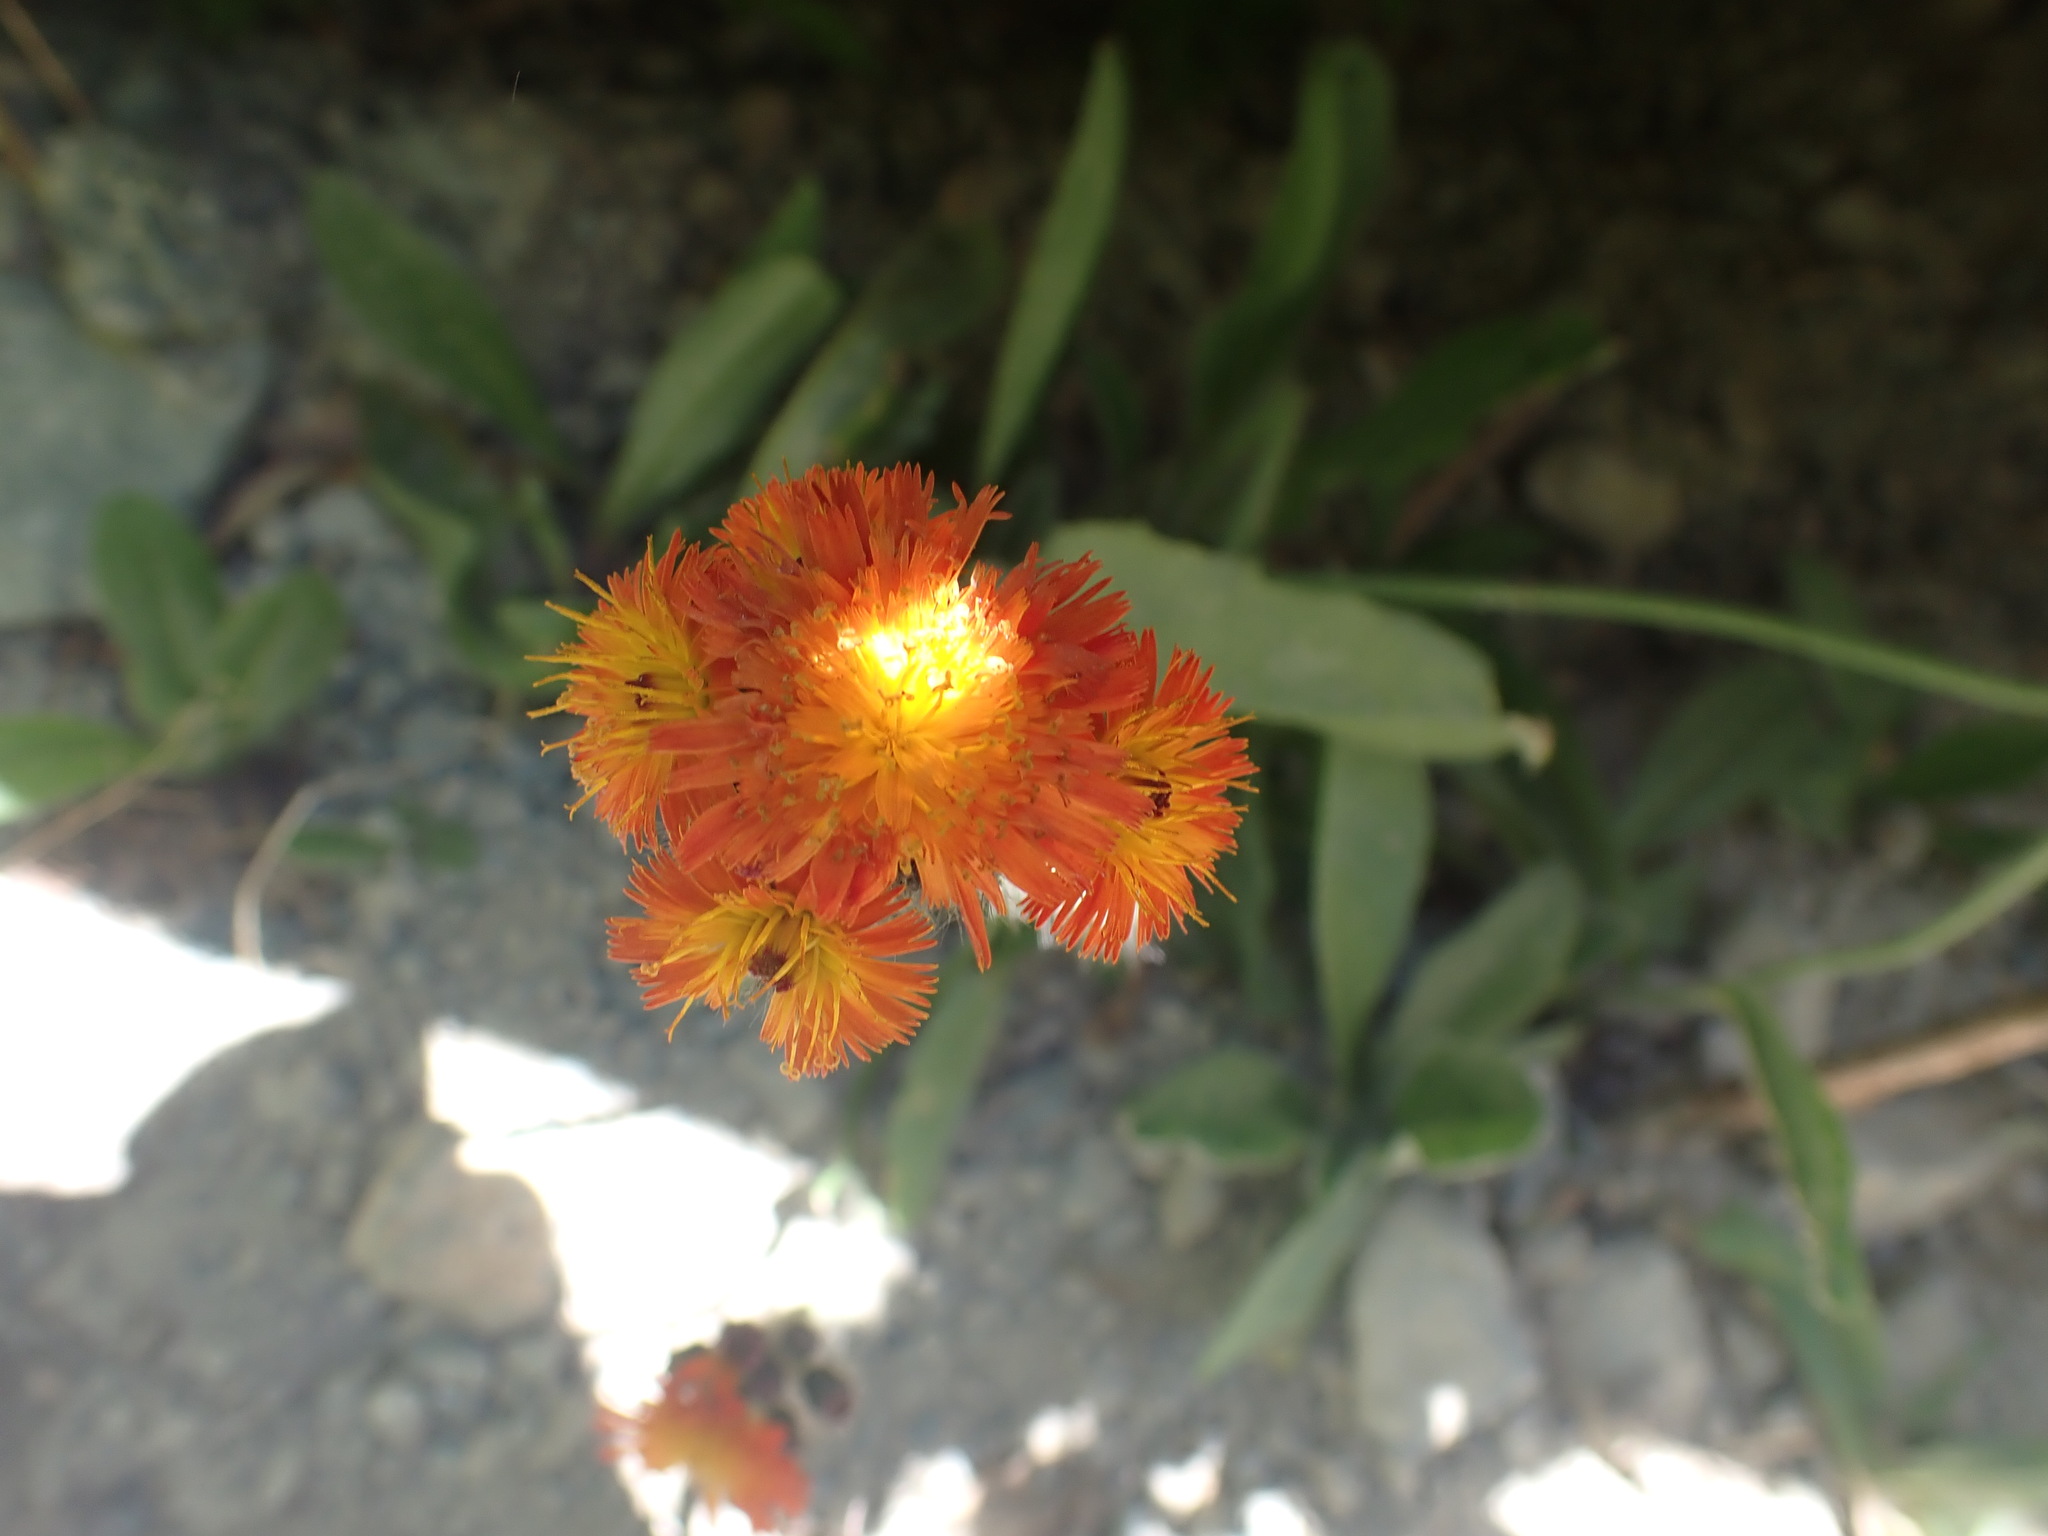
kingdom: Plantae
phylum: Tracheophyta
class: Magnoliopsida
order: Asterales
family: Asteraceae
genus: Pilosella
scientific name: Pilosella aurantiaca
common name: Fox-and-cubs
